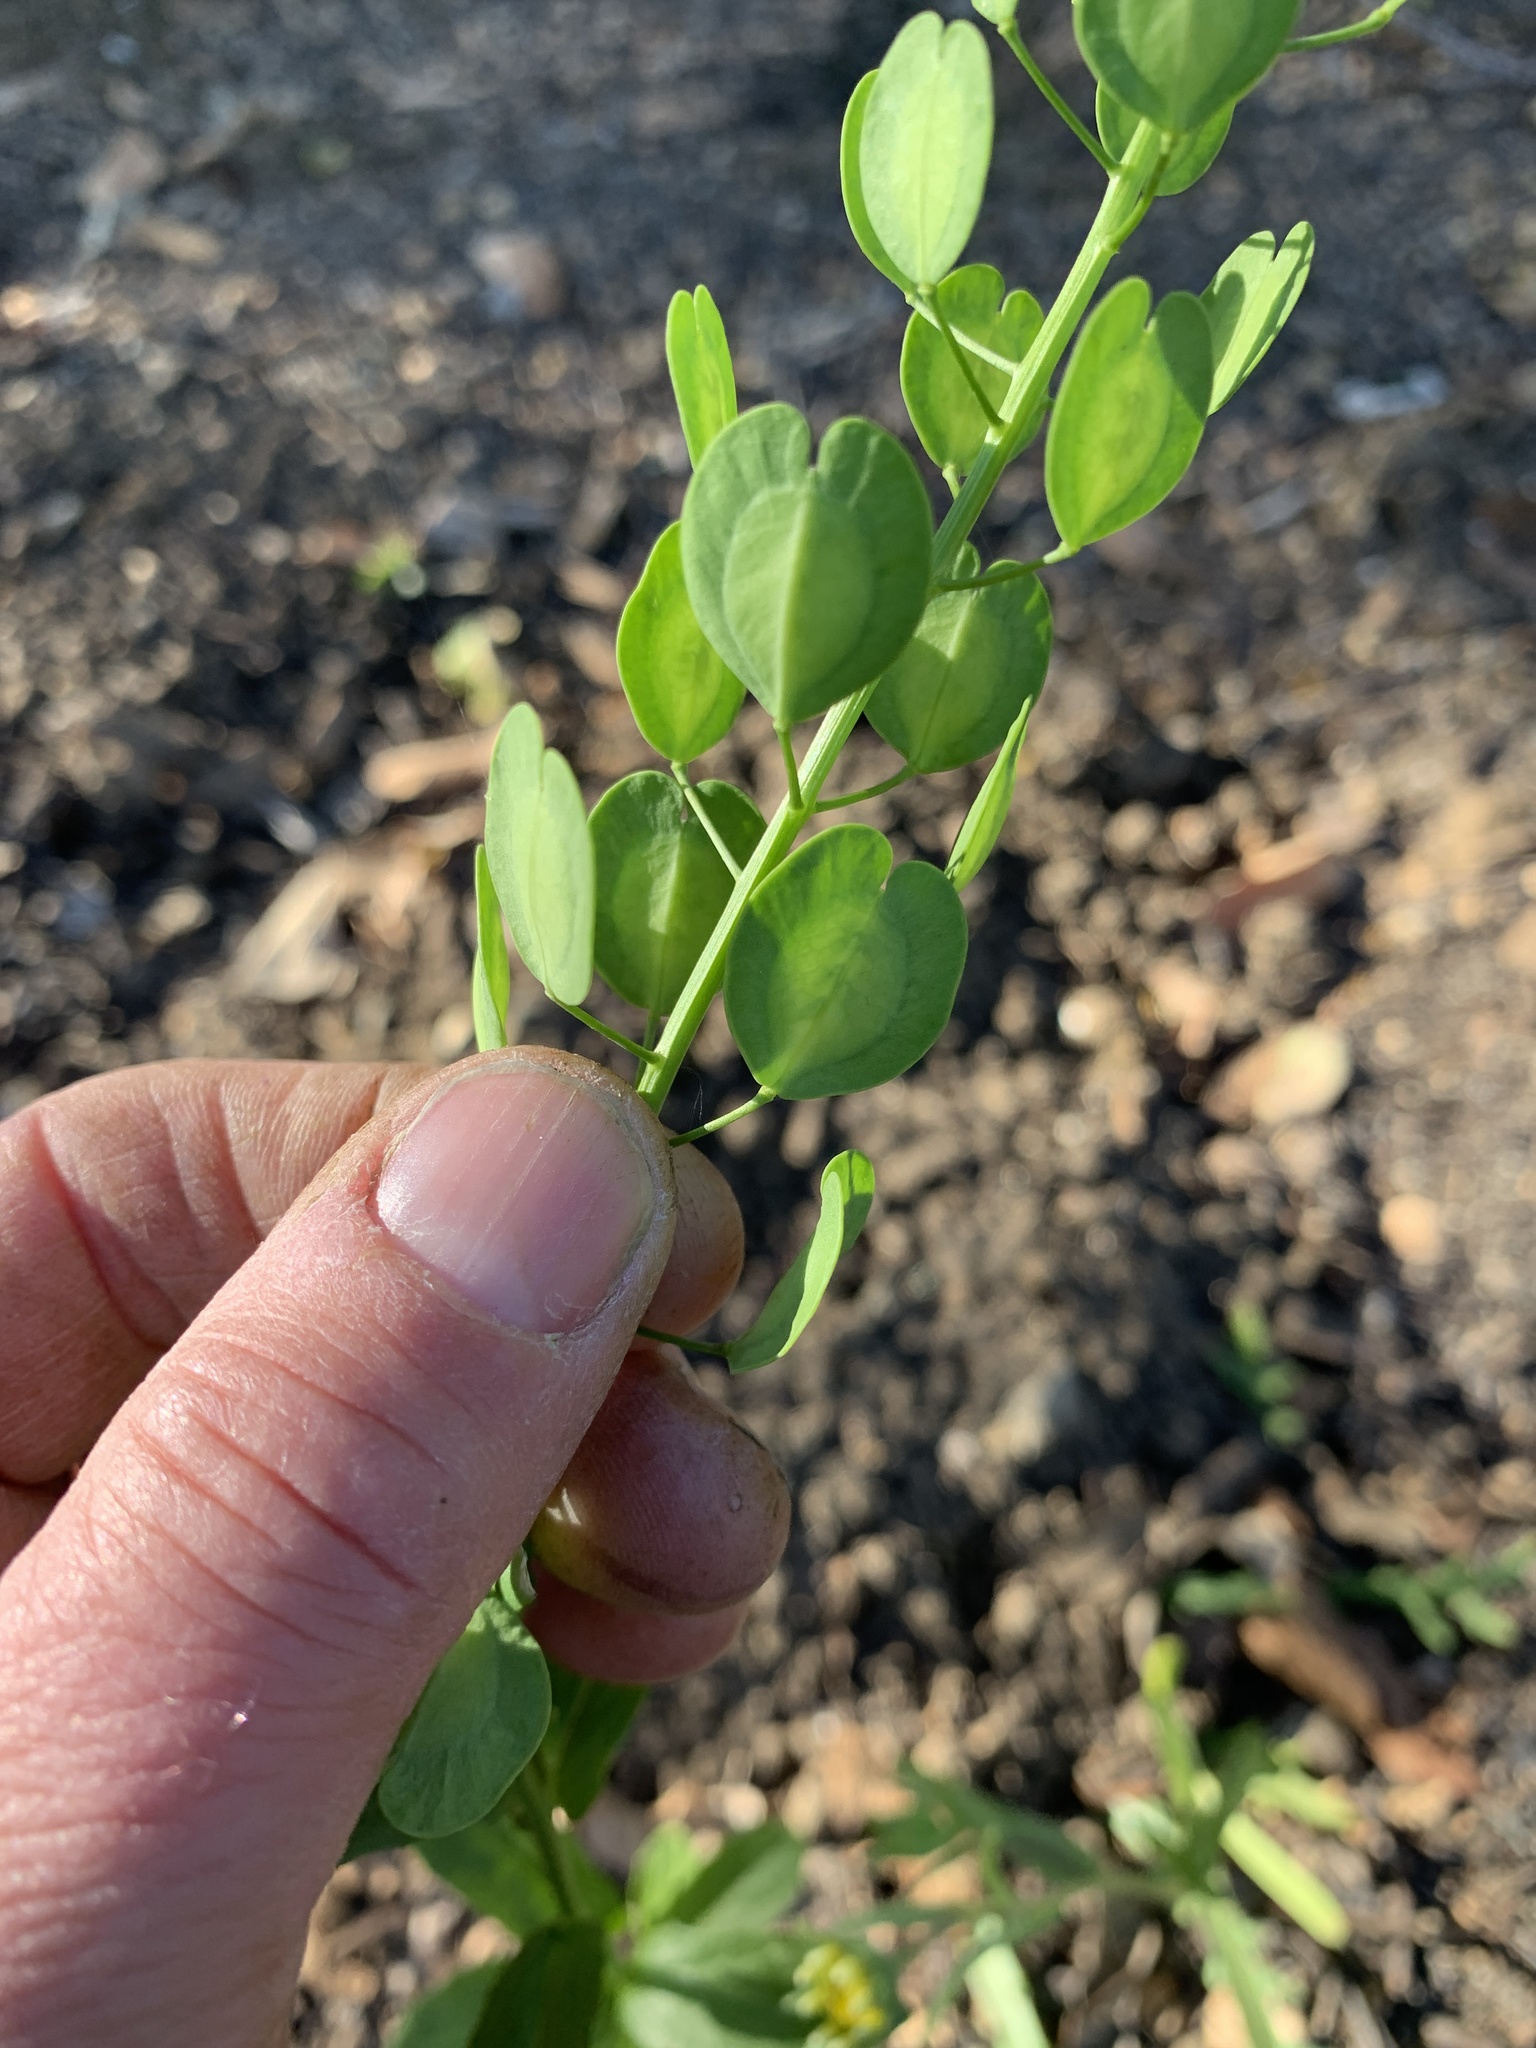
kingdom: Plantae
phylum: Tracheophyta
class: Magnoliopsida
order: Brassicales
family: Brassicaceae
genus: Thlaspi
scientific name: Thlaspi arvense
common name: Field pennycress
